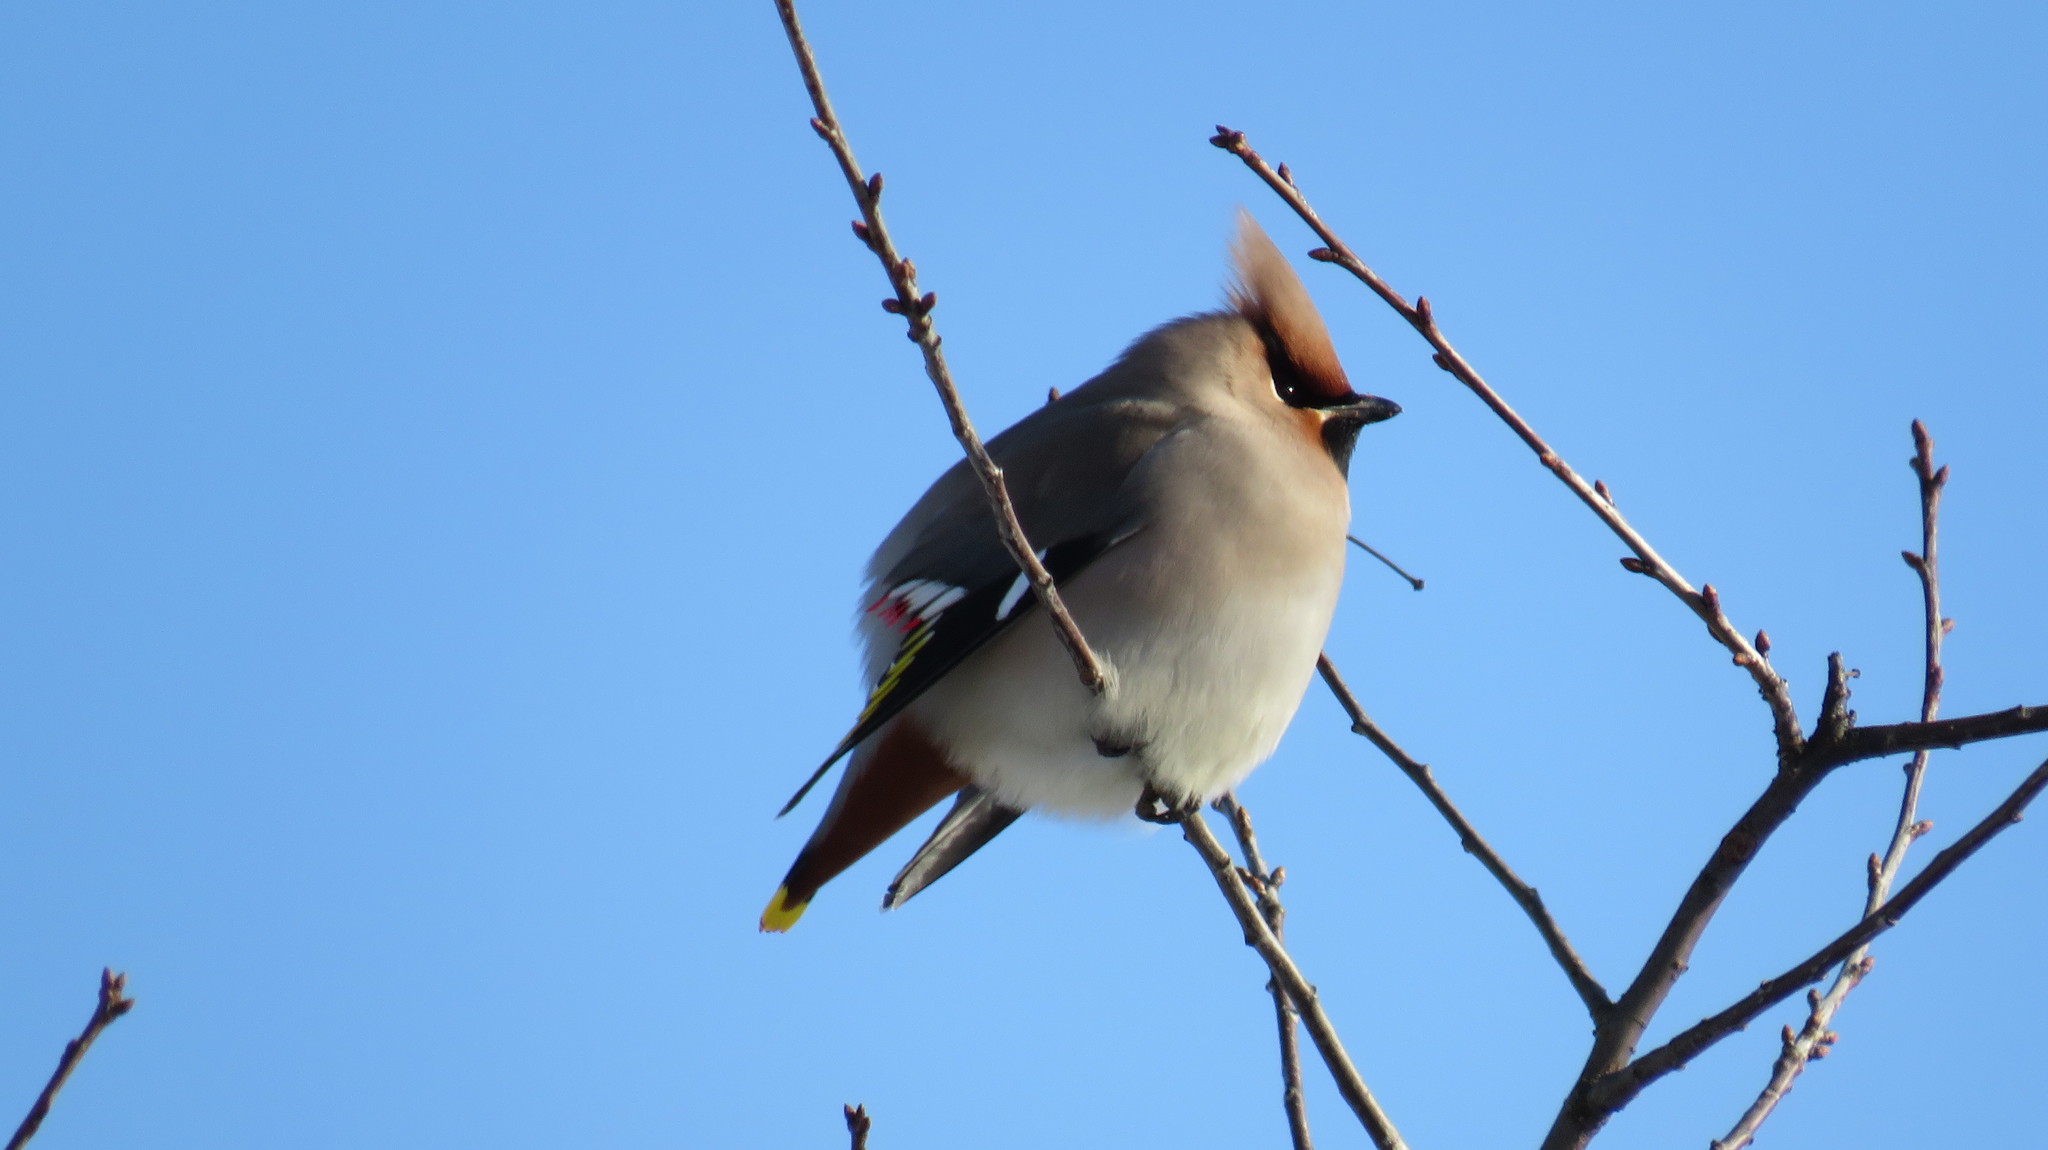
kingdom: Animalia
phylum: Chordata
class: Aves
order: Passeriformes
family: Bombycillidae
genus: Bombycilla
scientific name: Bombycilla garrulus
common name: Bohemian waxwing
